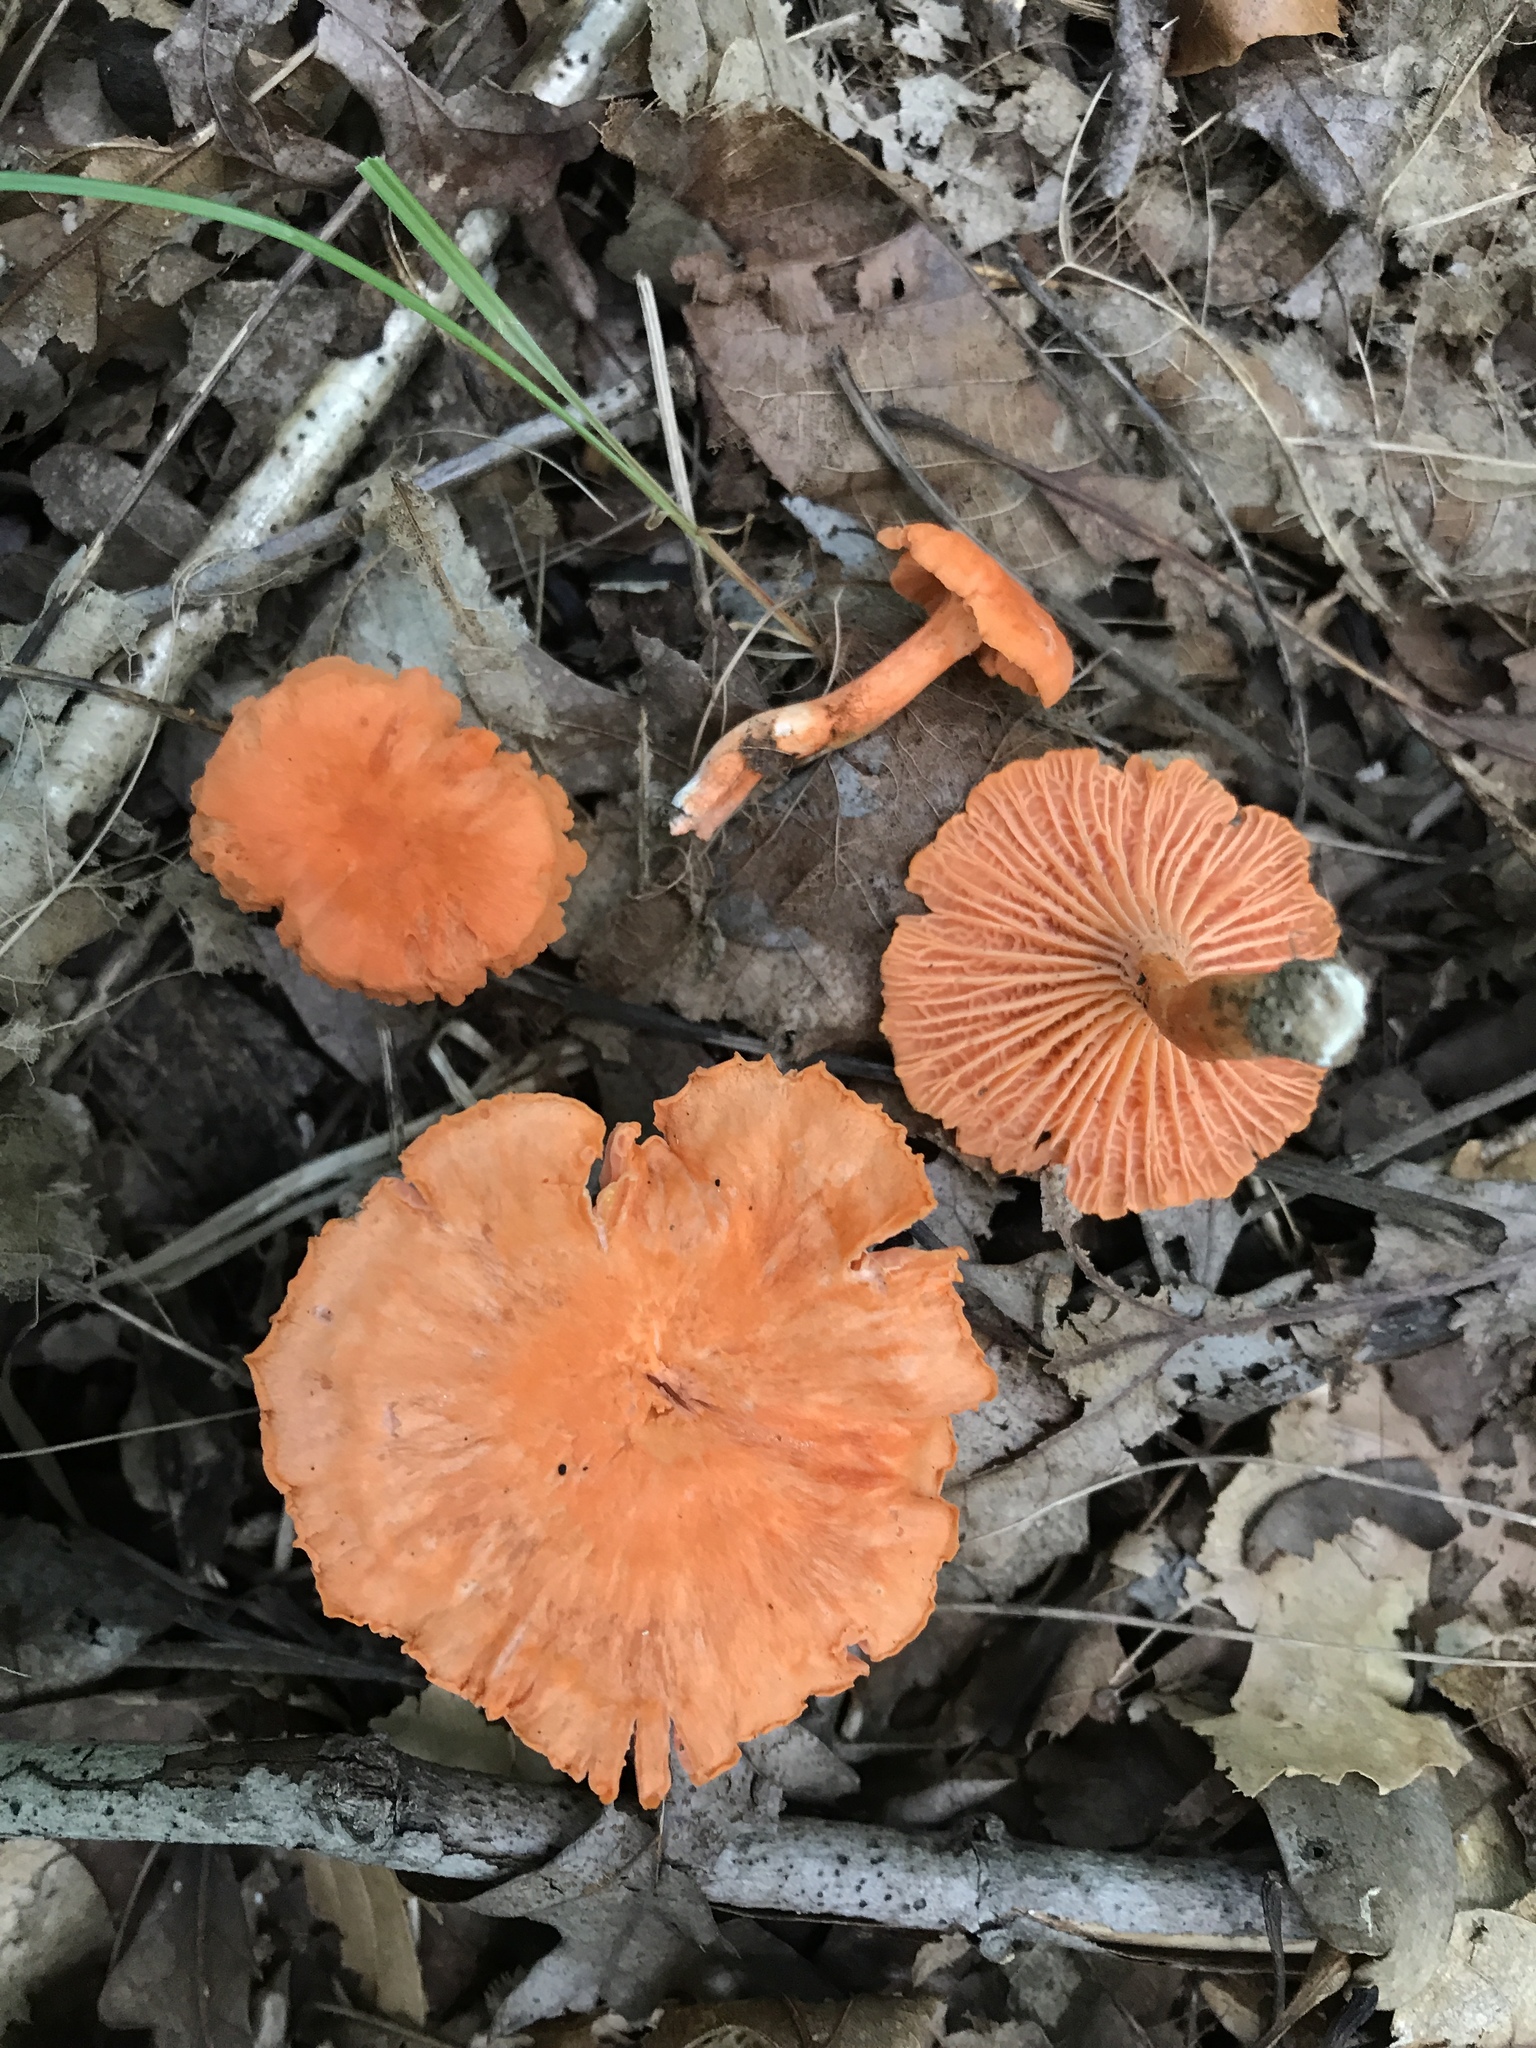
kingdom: Fungi
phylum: Basidiomycota
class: Agaricomycetes
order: Cantharellales
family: Hydnaceae
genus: Cantharellus
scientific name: Cantharellus corallinus
